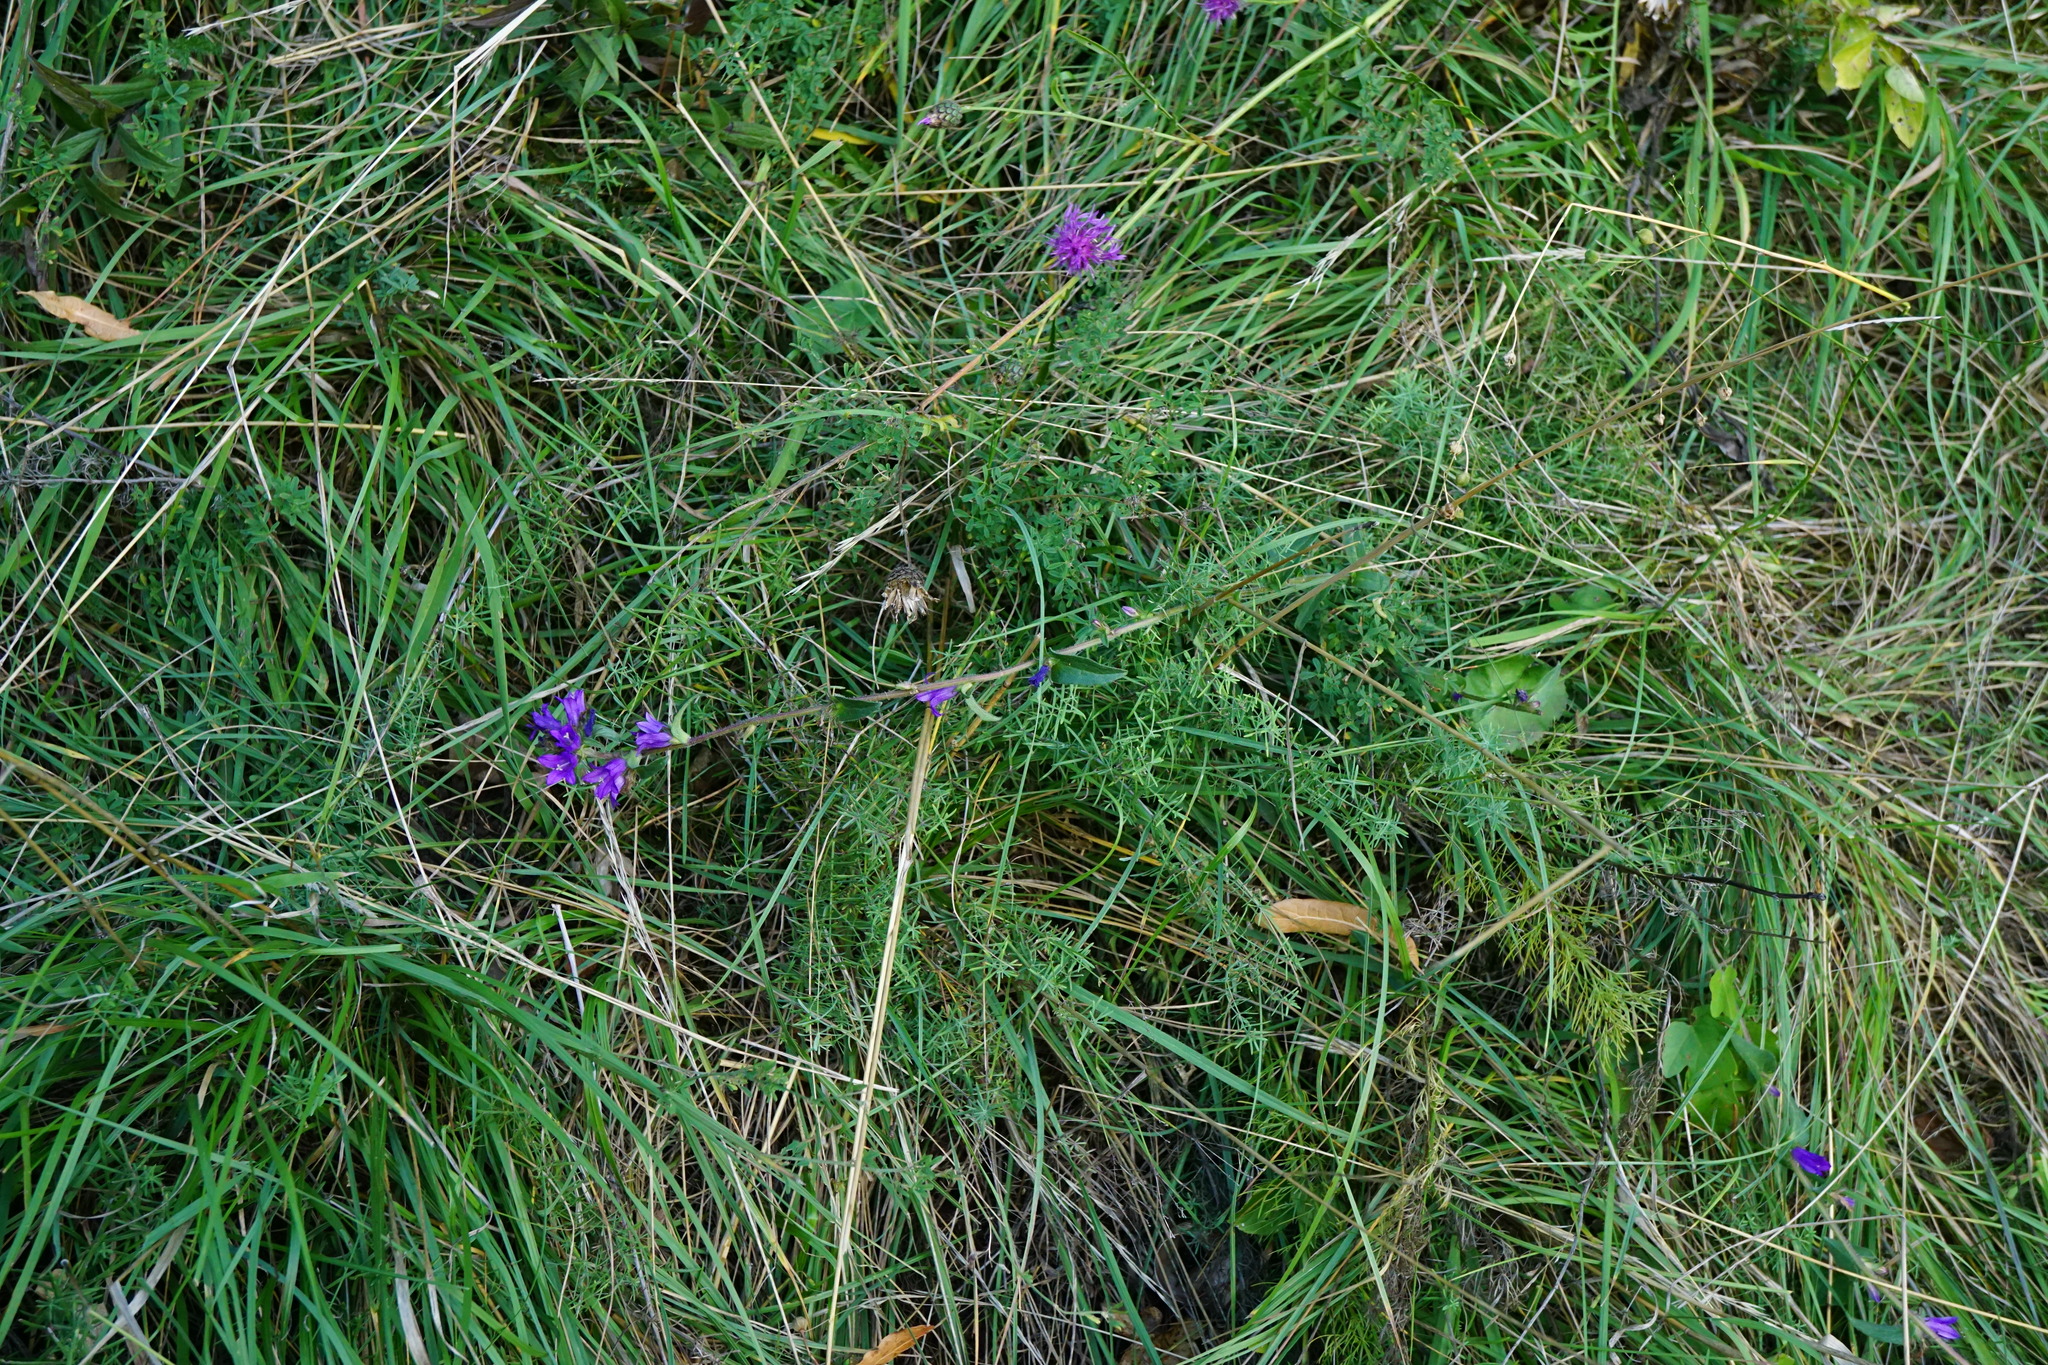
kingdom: Plantae
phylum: Tracheophyta
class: Magnoliopsida
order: Asterales
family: Campanulaceae
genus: Campanula
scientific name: Campanula glomerata
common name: Clustered bellflower
